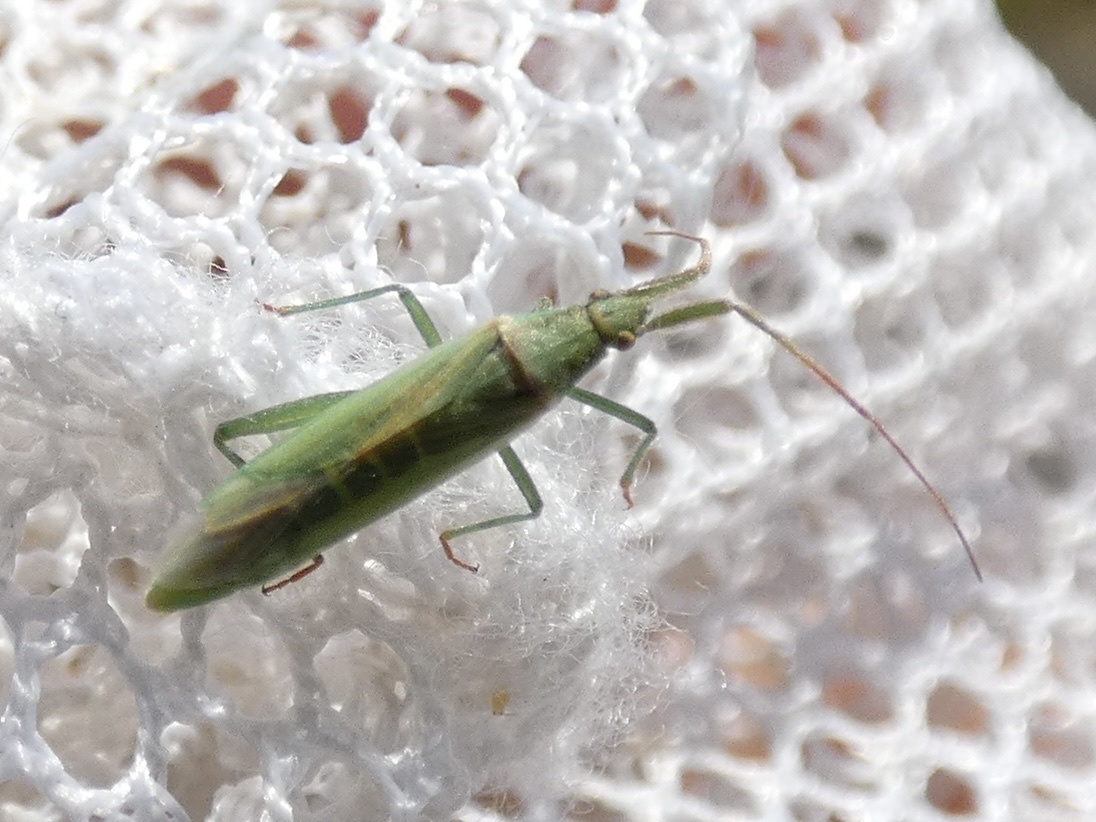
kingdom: Animalia
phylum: Arthropoda
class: Insecta
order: Hemiptera
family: Miridae
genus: Stenodema
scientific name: Stenodema laevigata
